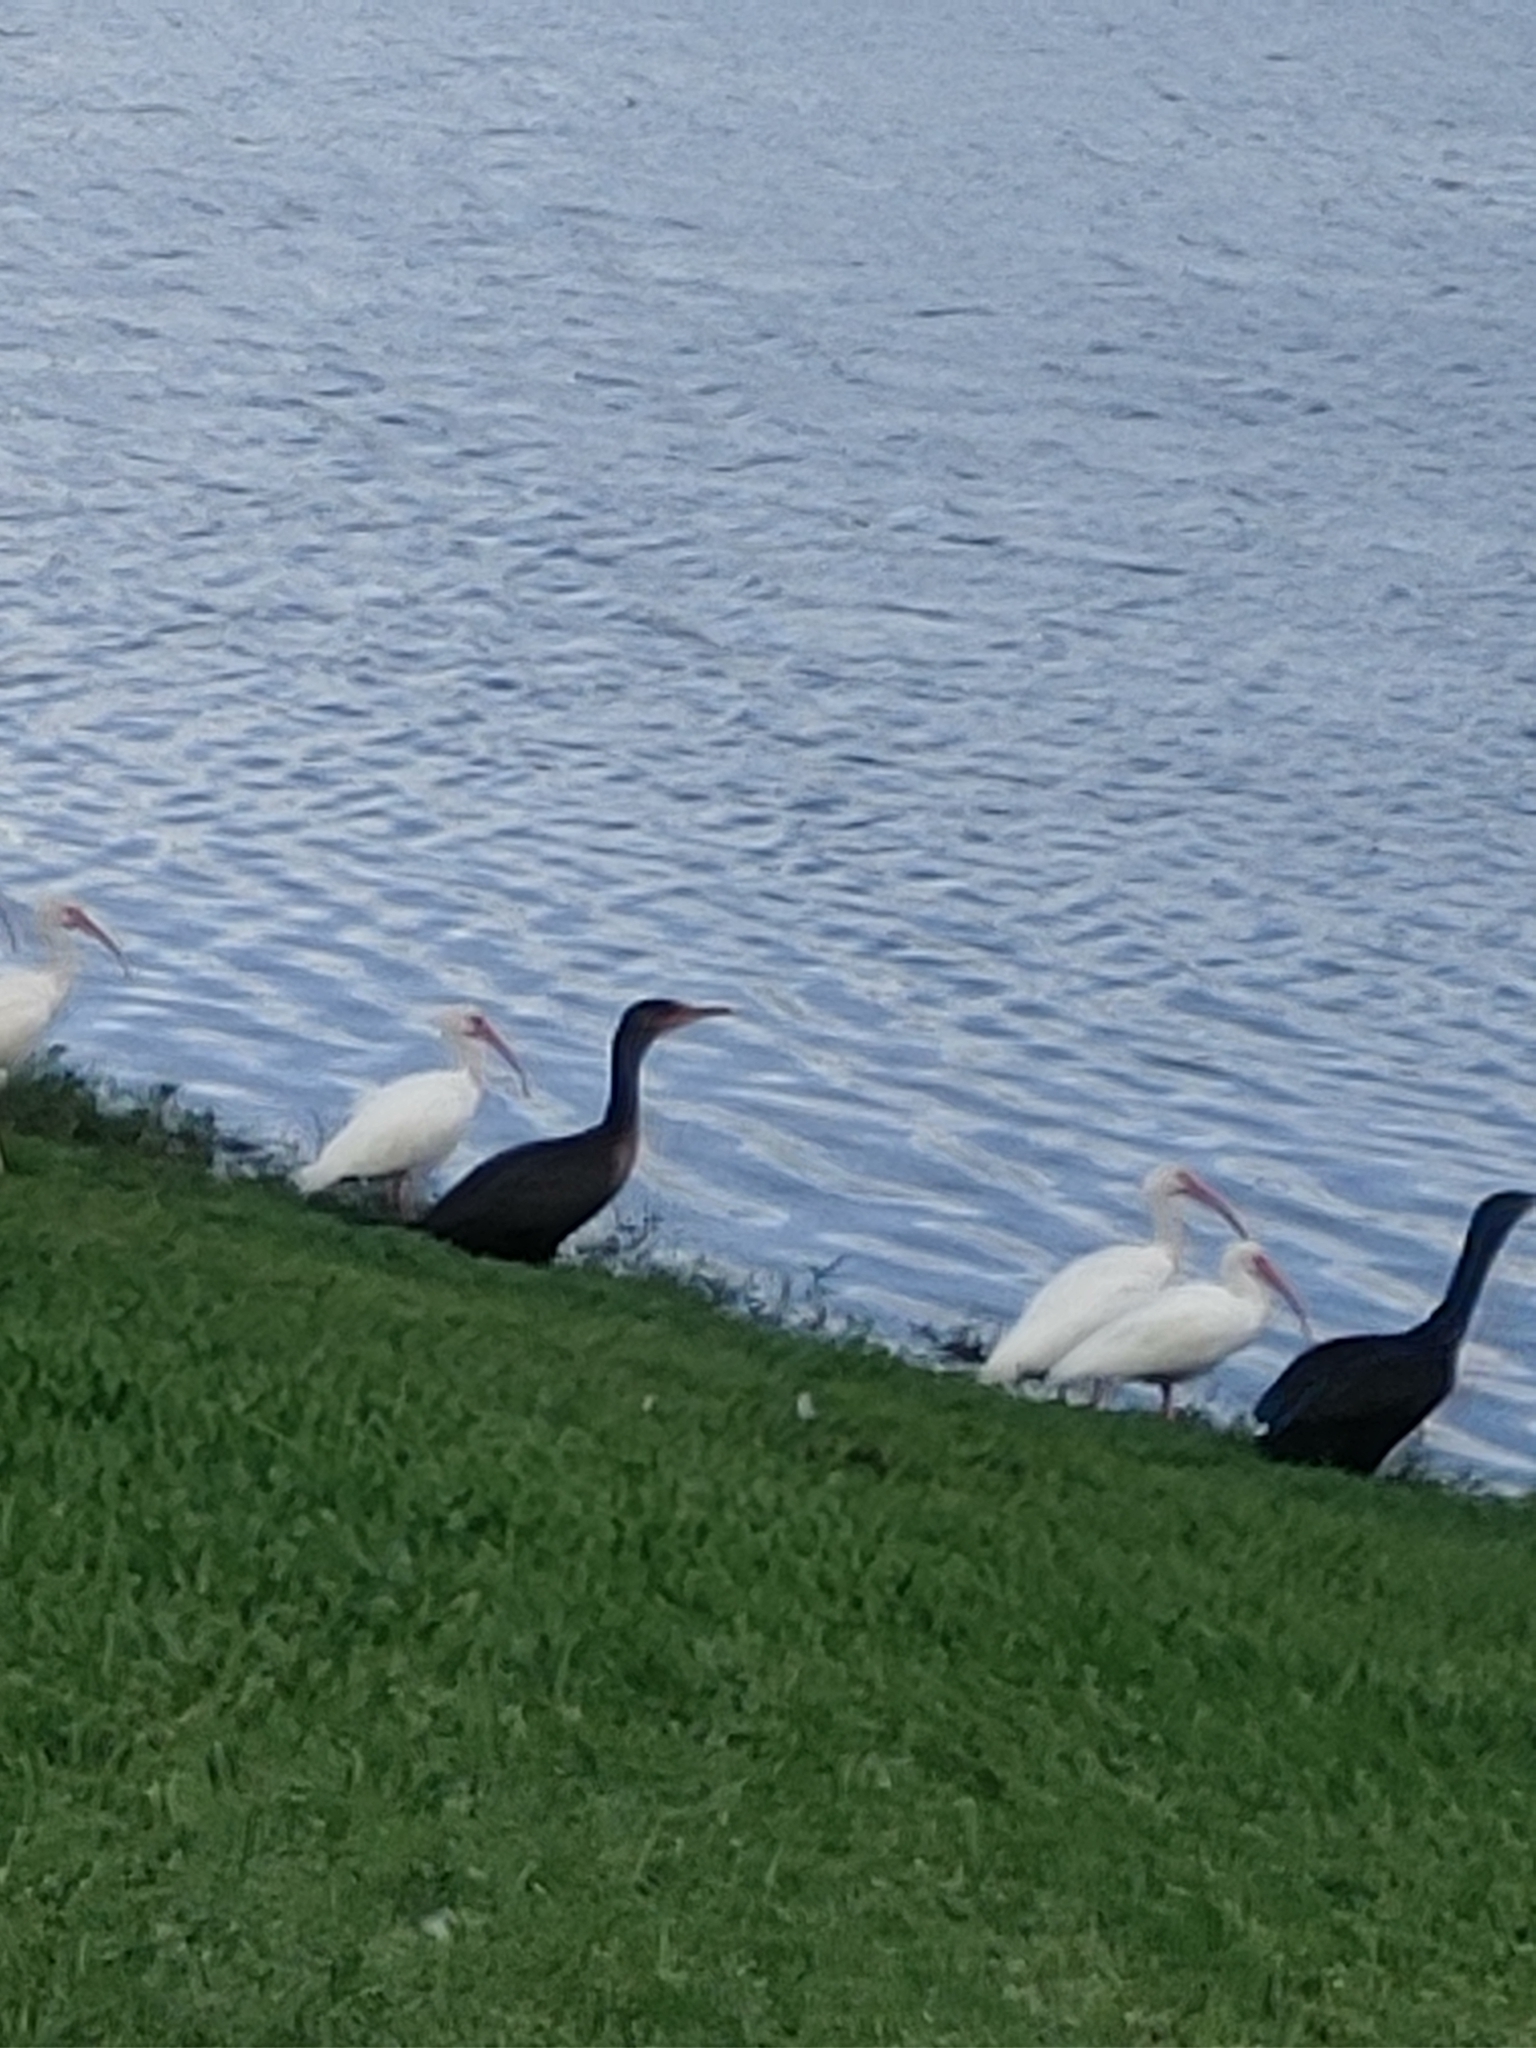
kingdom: Animalia
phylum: Chordata
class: Aves
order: Suliformes
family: Phalacrocoracidae
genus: Phalacrocorax
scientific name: Phalacrocorax auritus
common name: Double-crested cormorant
